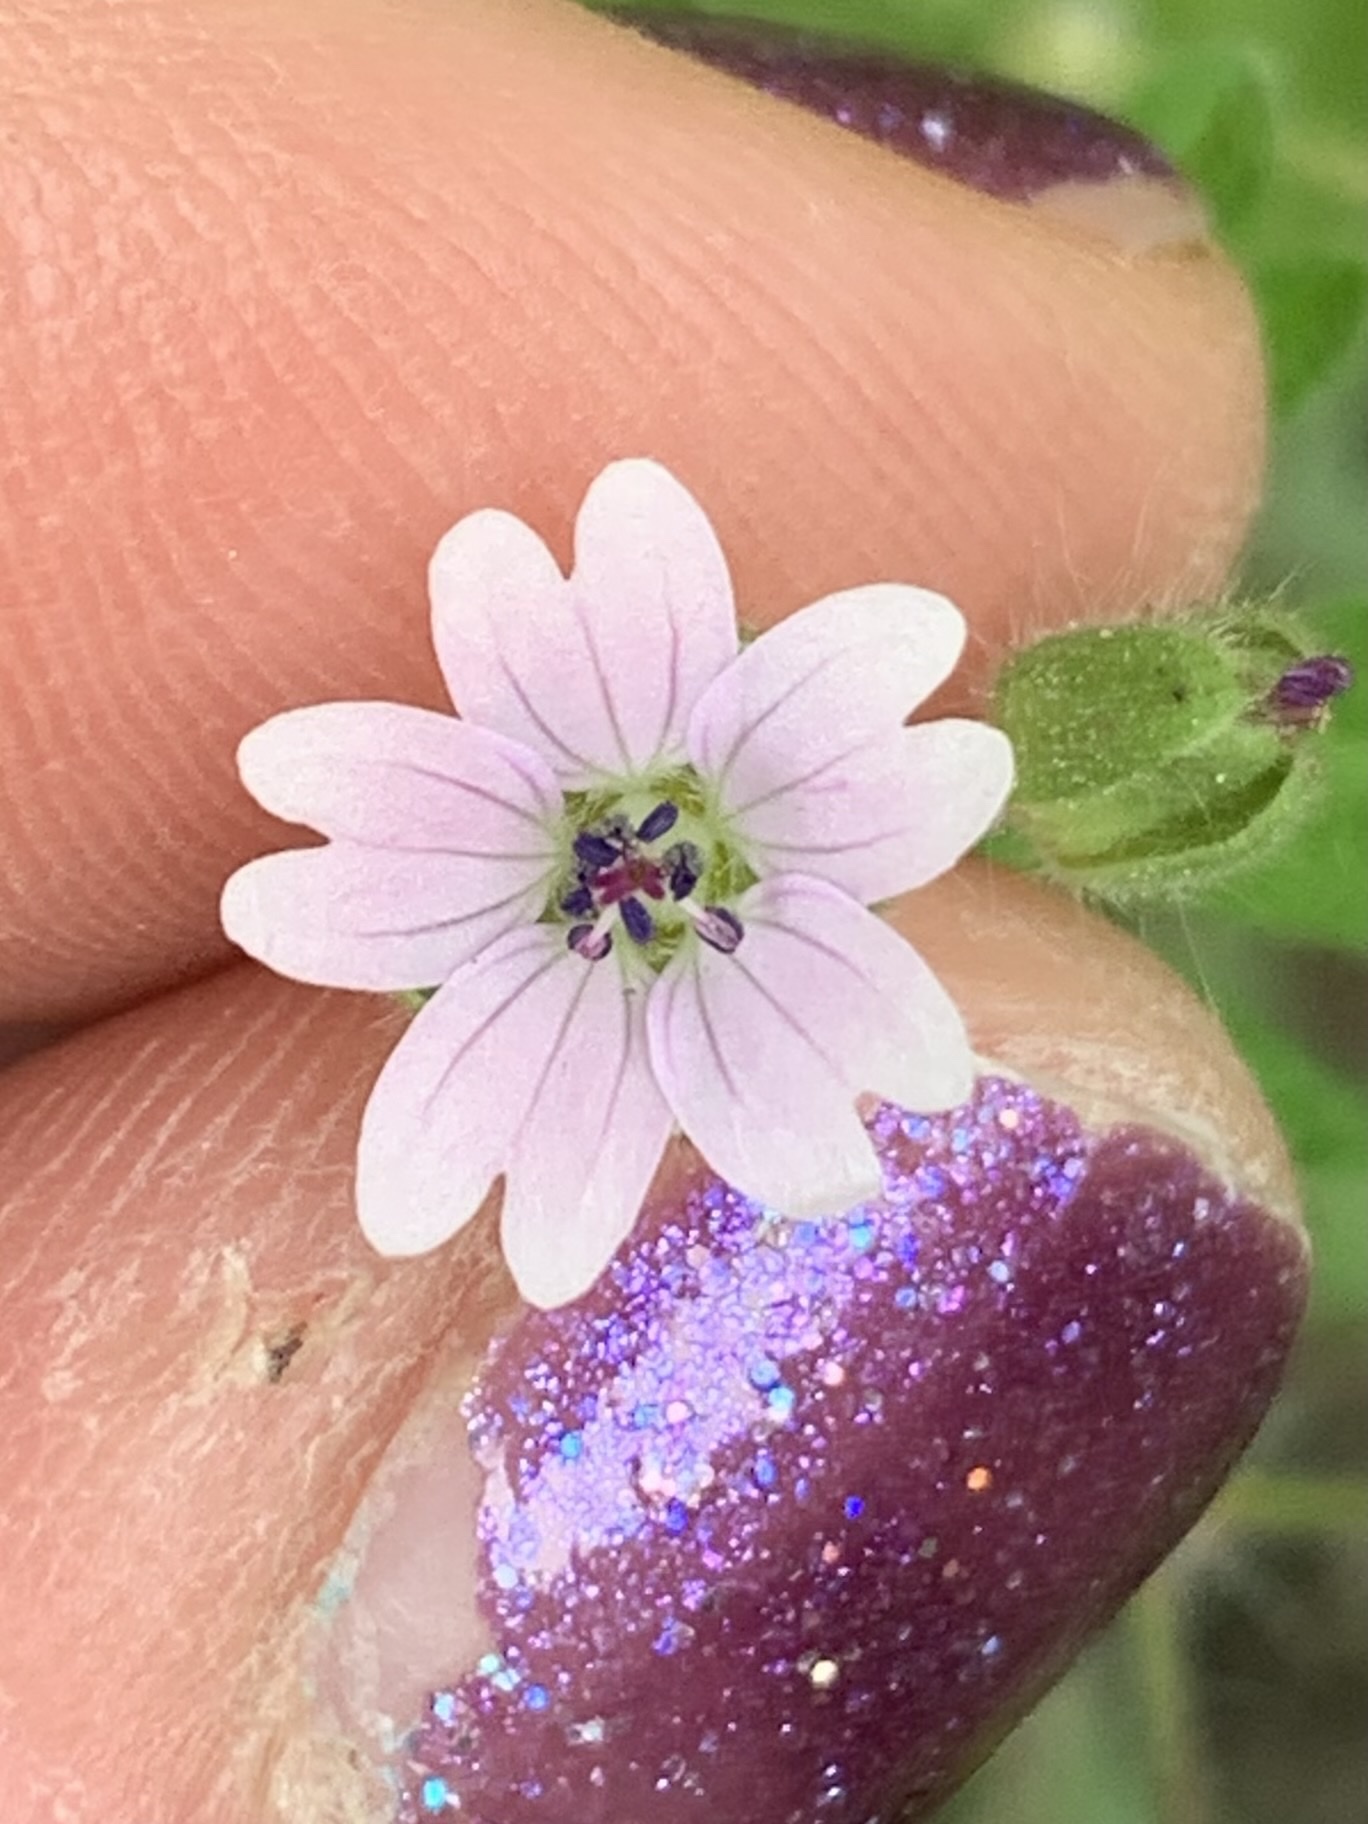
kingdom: Plantae
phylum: Tracheophyta
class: Magnoliopsida
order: Geraniales
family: Geraniaceae
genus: Geranium
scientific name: Geranium molle
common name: Dove's-foot crane's-bill
